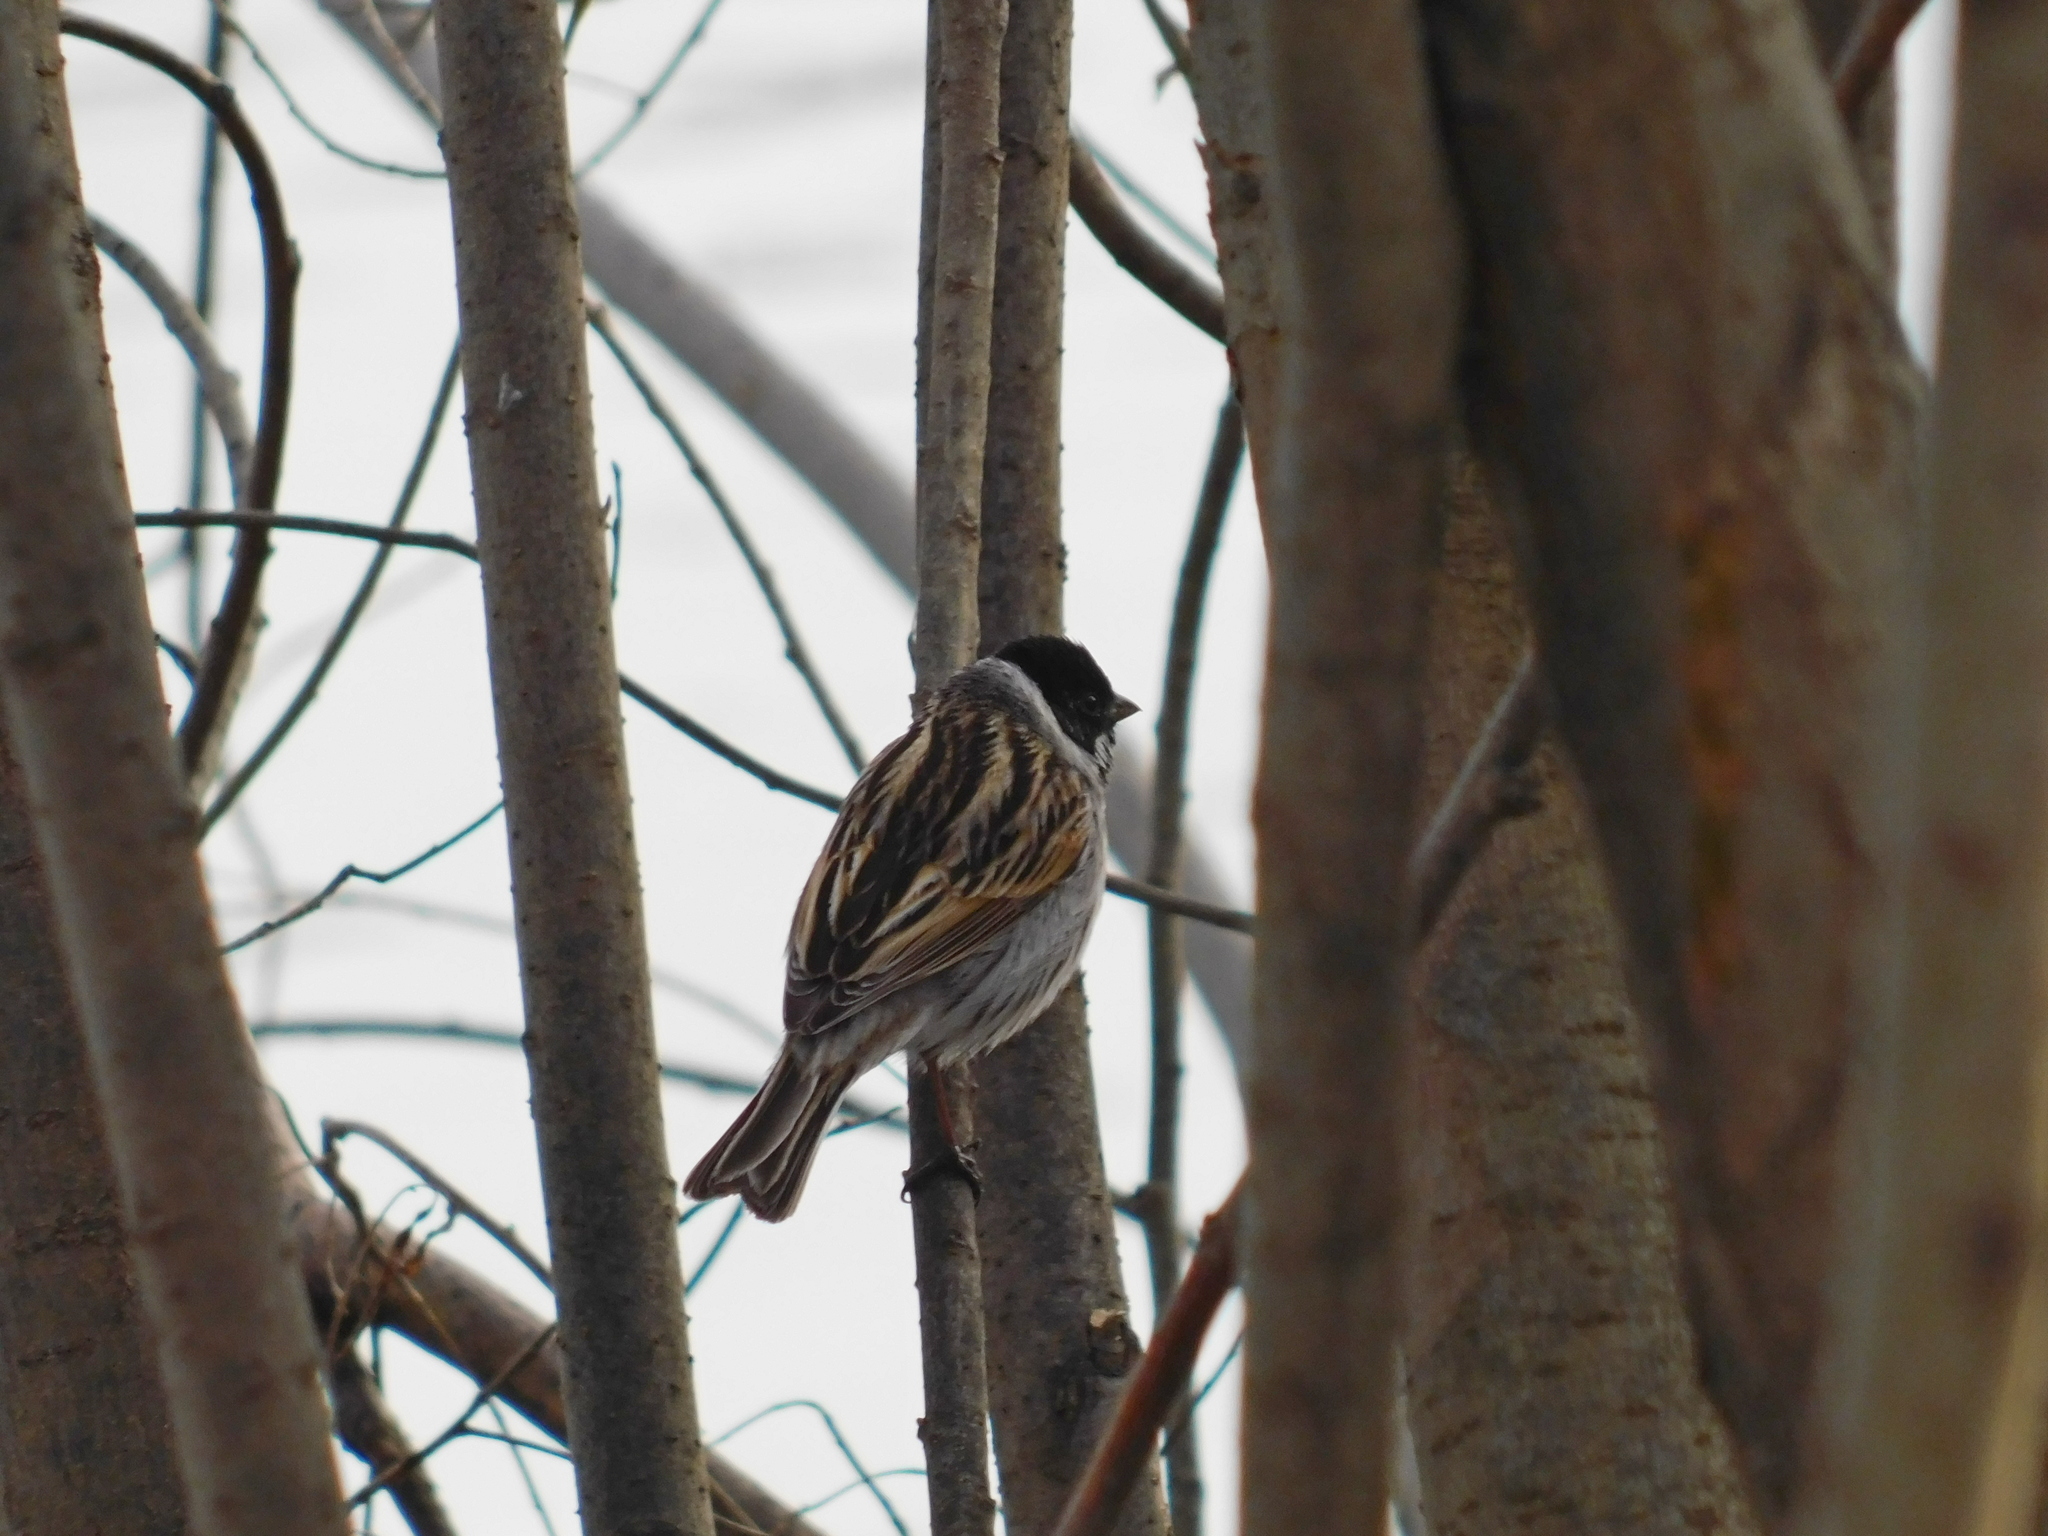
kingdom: Animalia
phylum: Chordata
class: Aves
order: Passeriformes
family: Emberizidae
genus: Emberiza
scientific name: Emberiza schoeniclus
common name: Reed bunting
